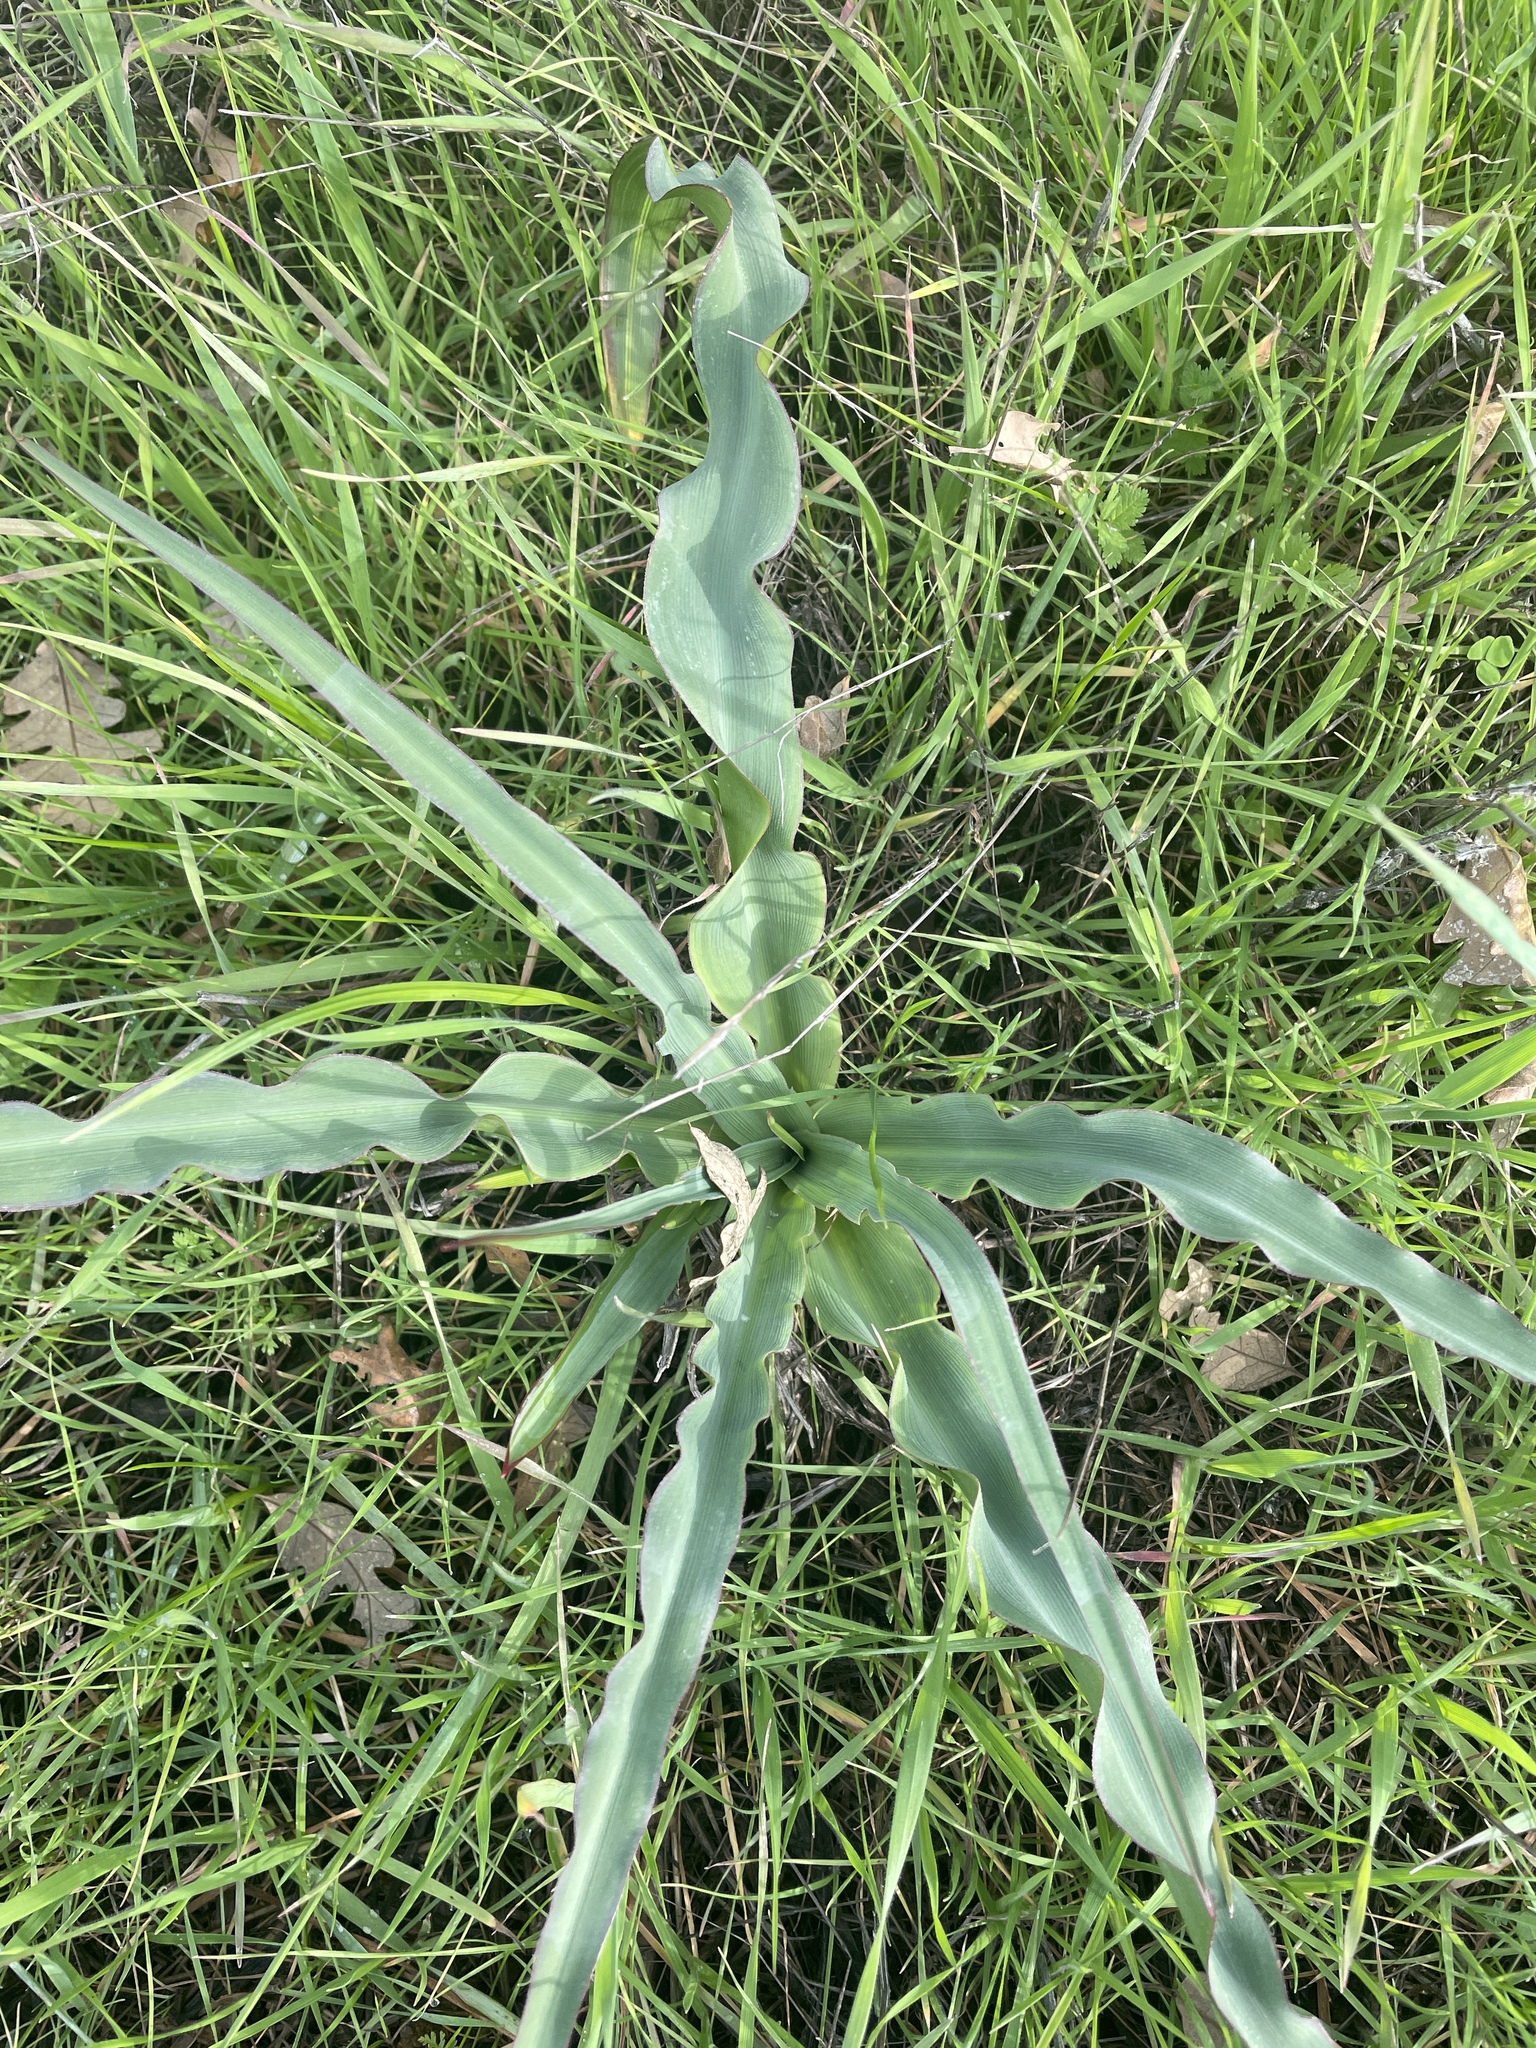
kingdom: Plantae
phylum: Tracheophyta
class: Liliopsida
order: Asparagales
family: Asparagaceae
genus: Chlorogalum
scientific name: Chlorogalum pomeridianum
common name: Amole
